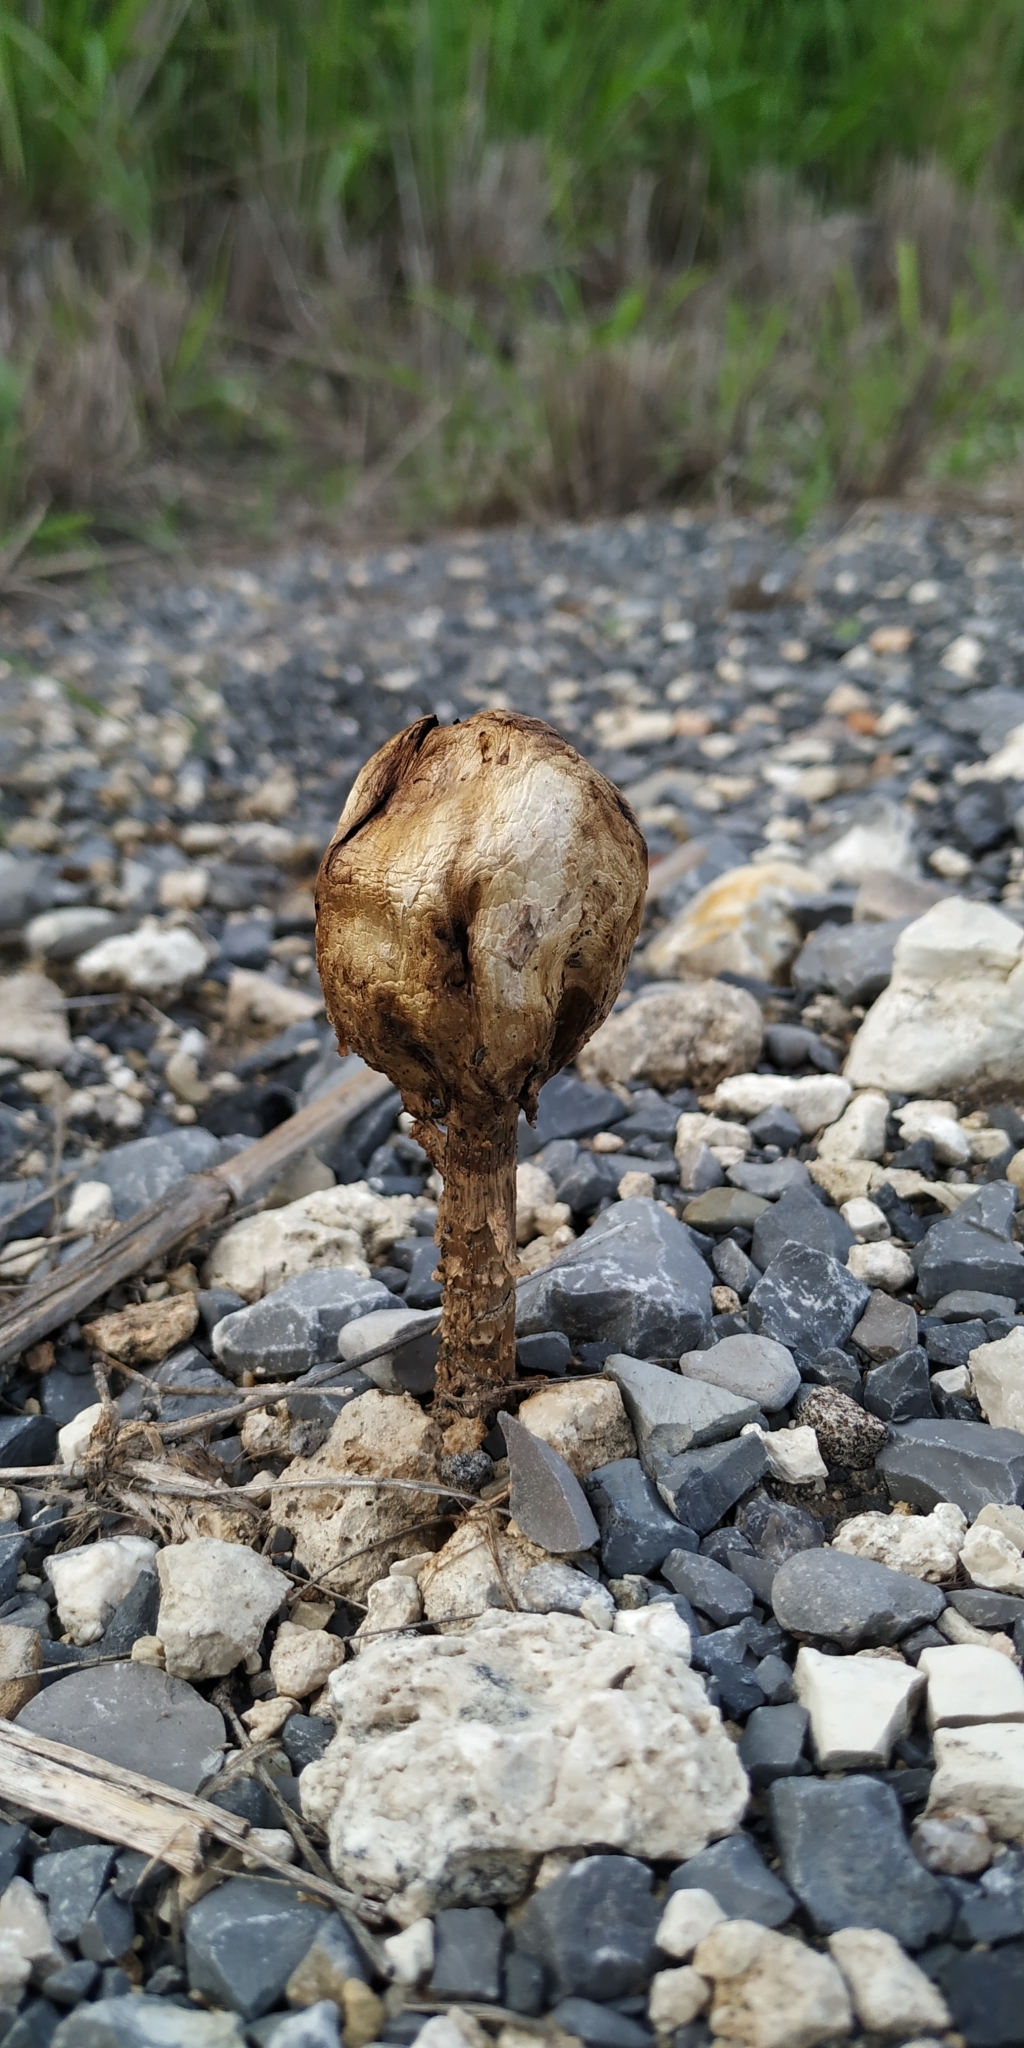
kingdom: Fungi
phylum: Basidiomycota
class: Agaricomycetes
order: Agaricales
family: Agaricaceae
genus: Podaxis
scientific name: Podaxis pistillaris
